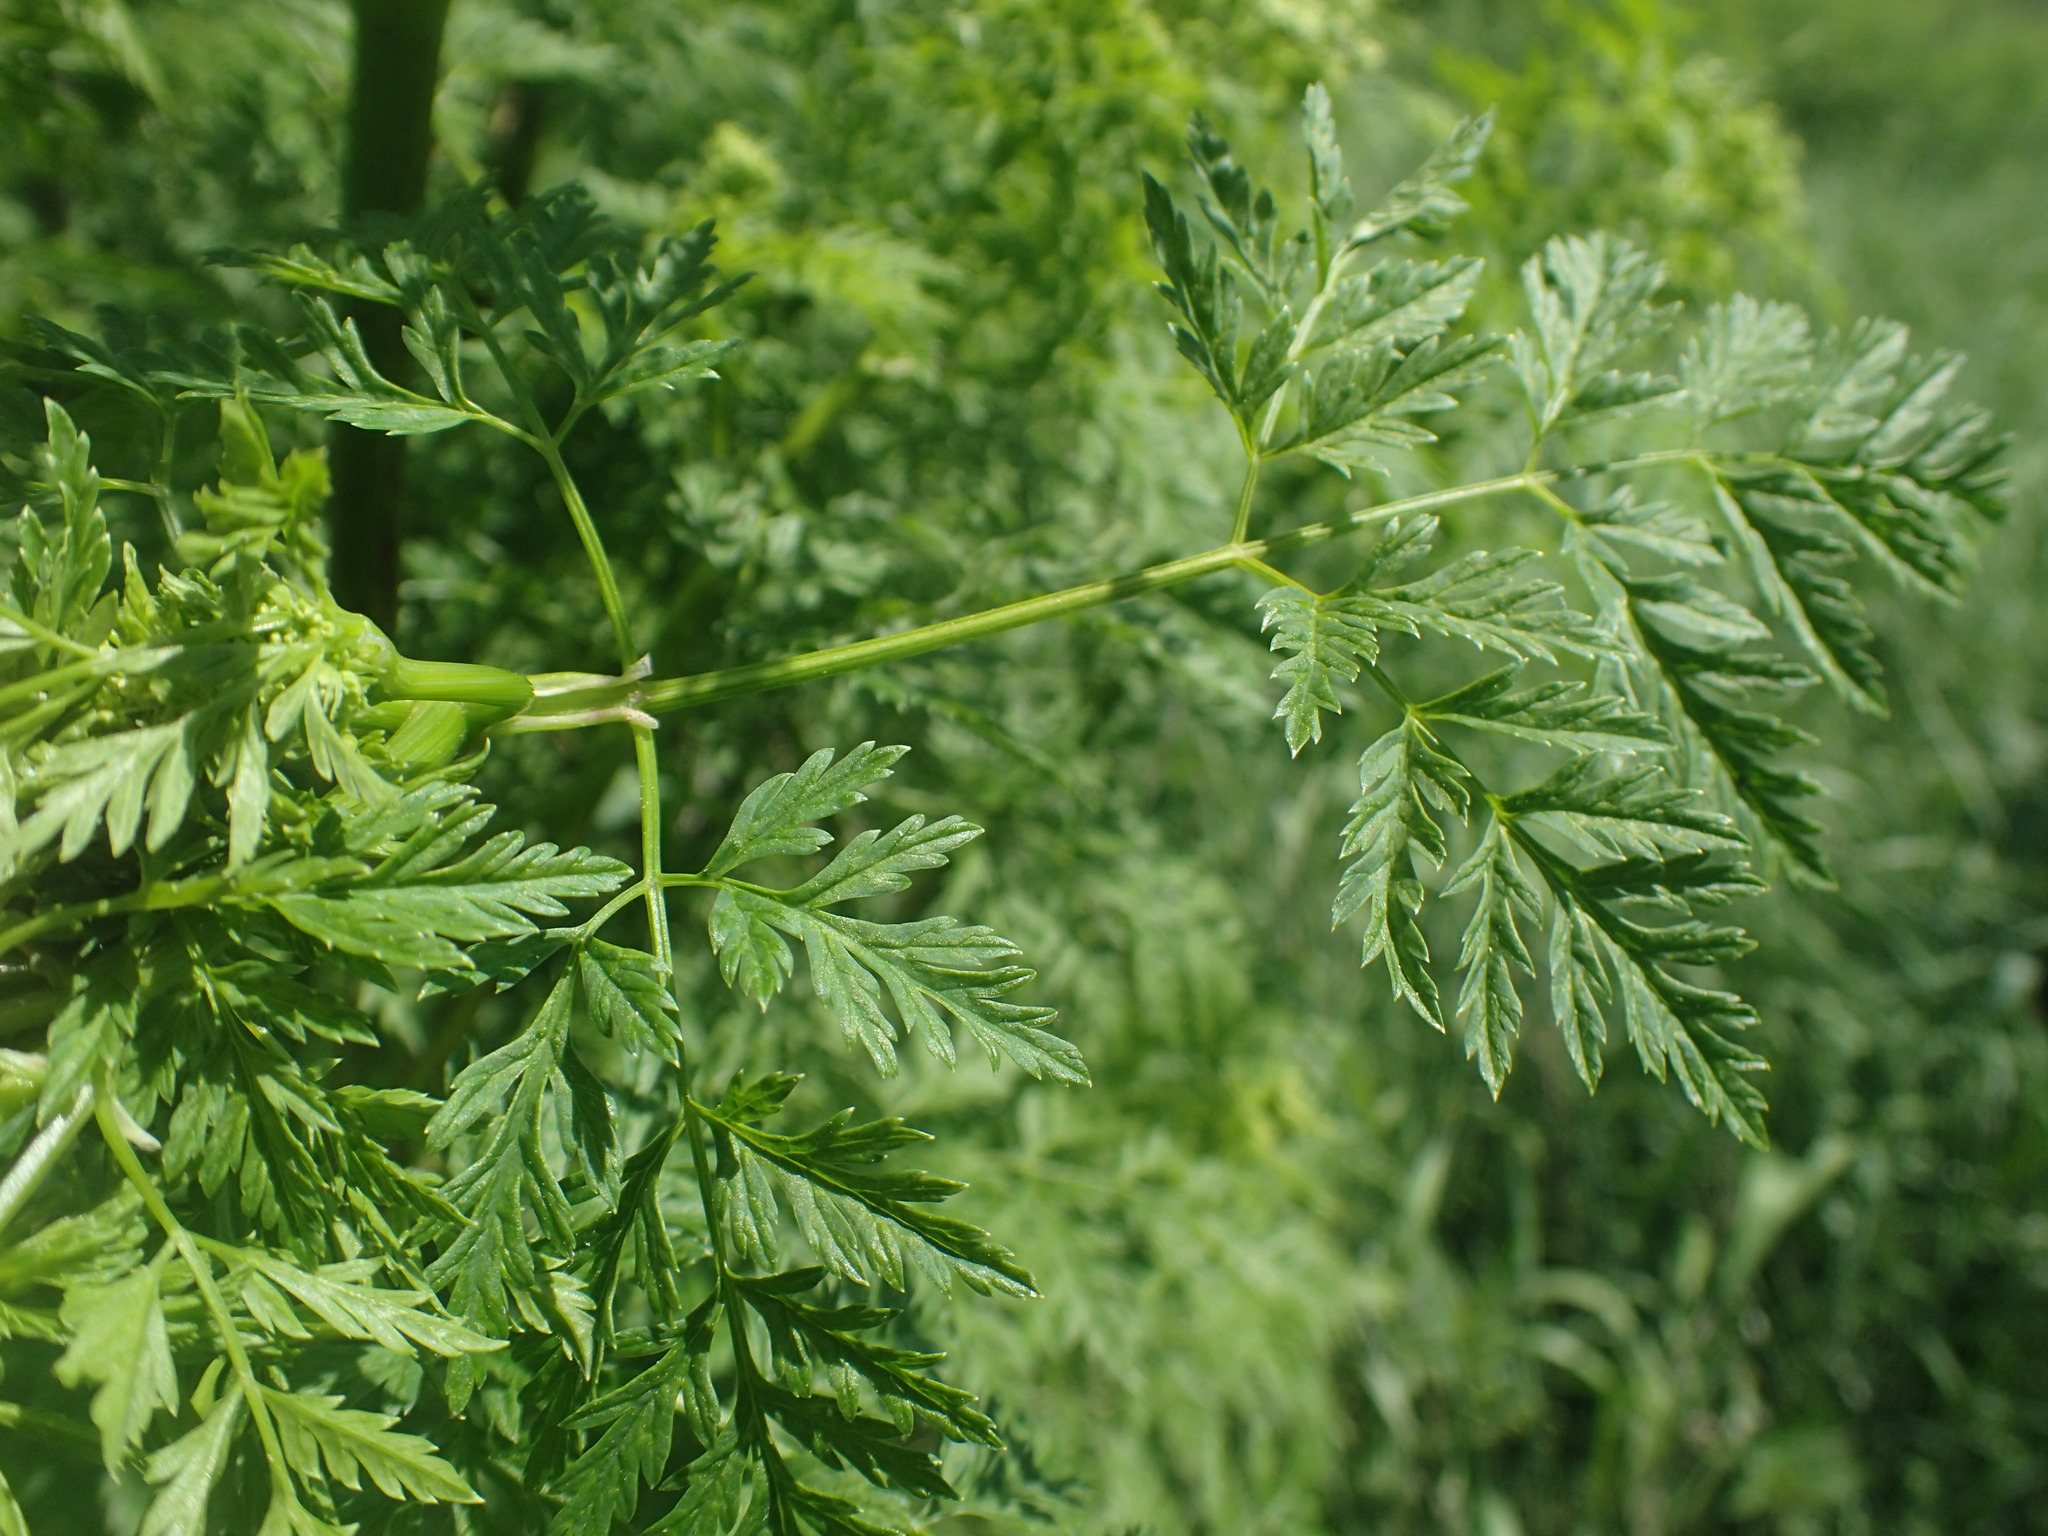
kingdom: Plantae
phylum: Tracheophyta
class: Magnoliopsida
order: Apiales
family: Apiaceae
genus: Conium
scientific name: Conium maculatum
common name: Hemlock
